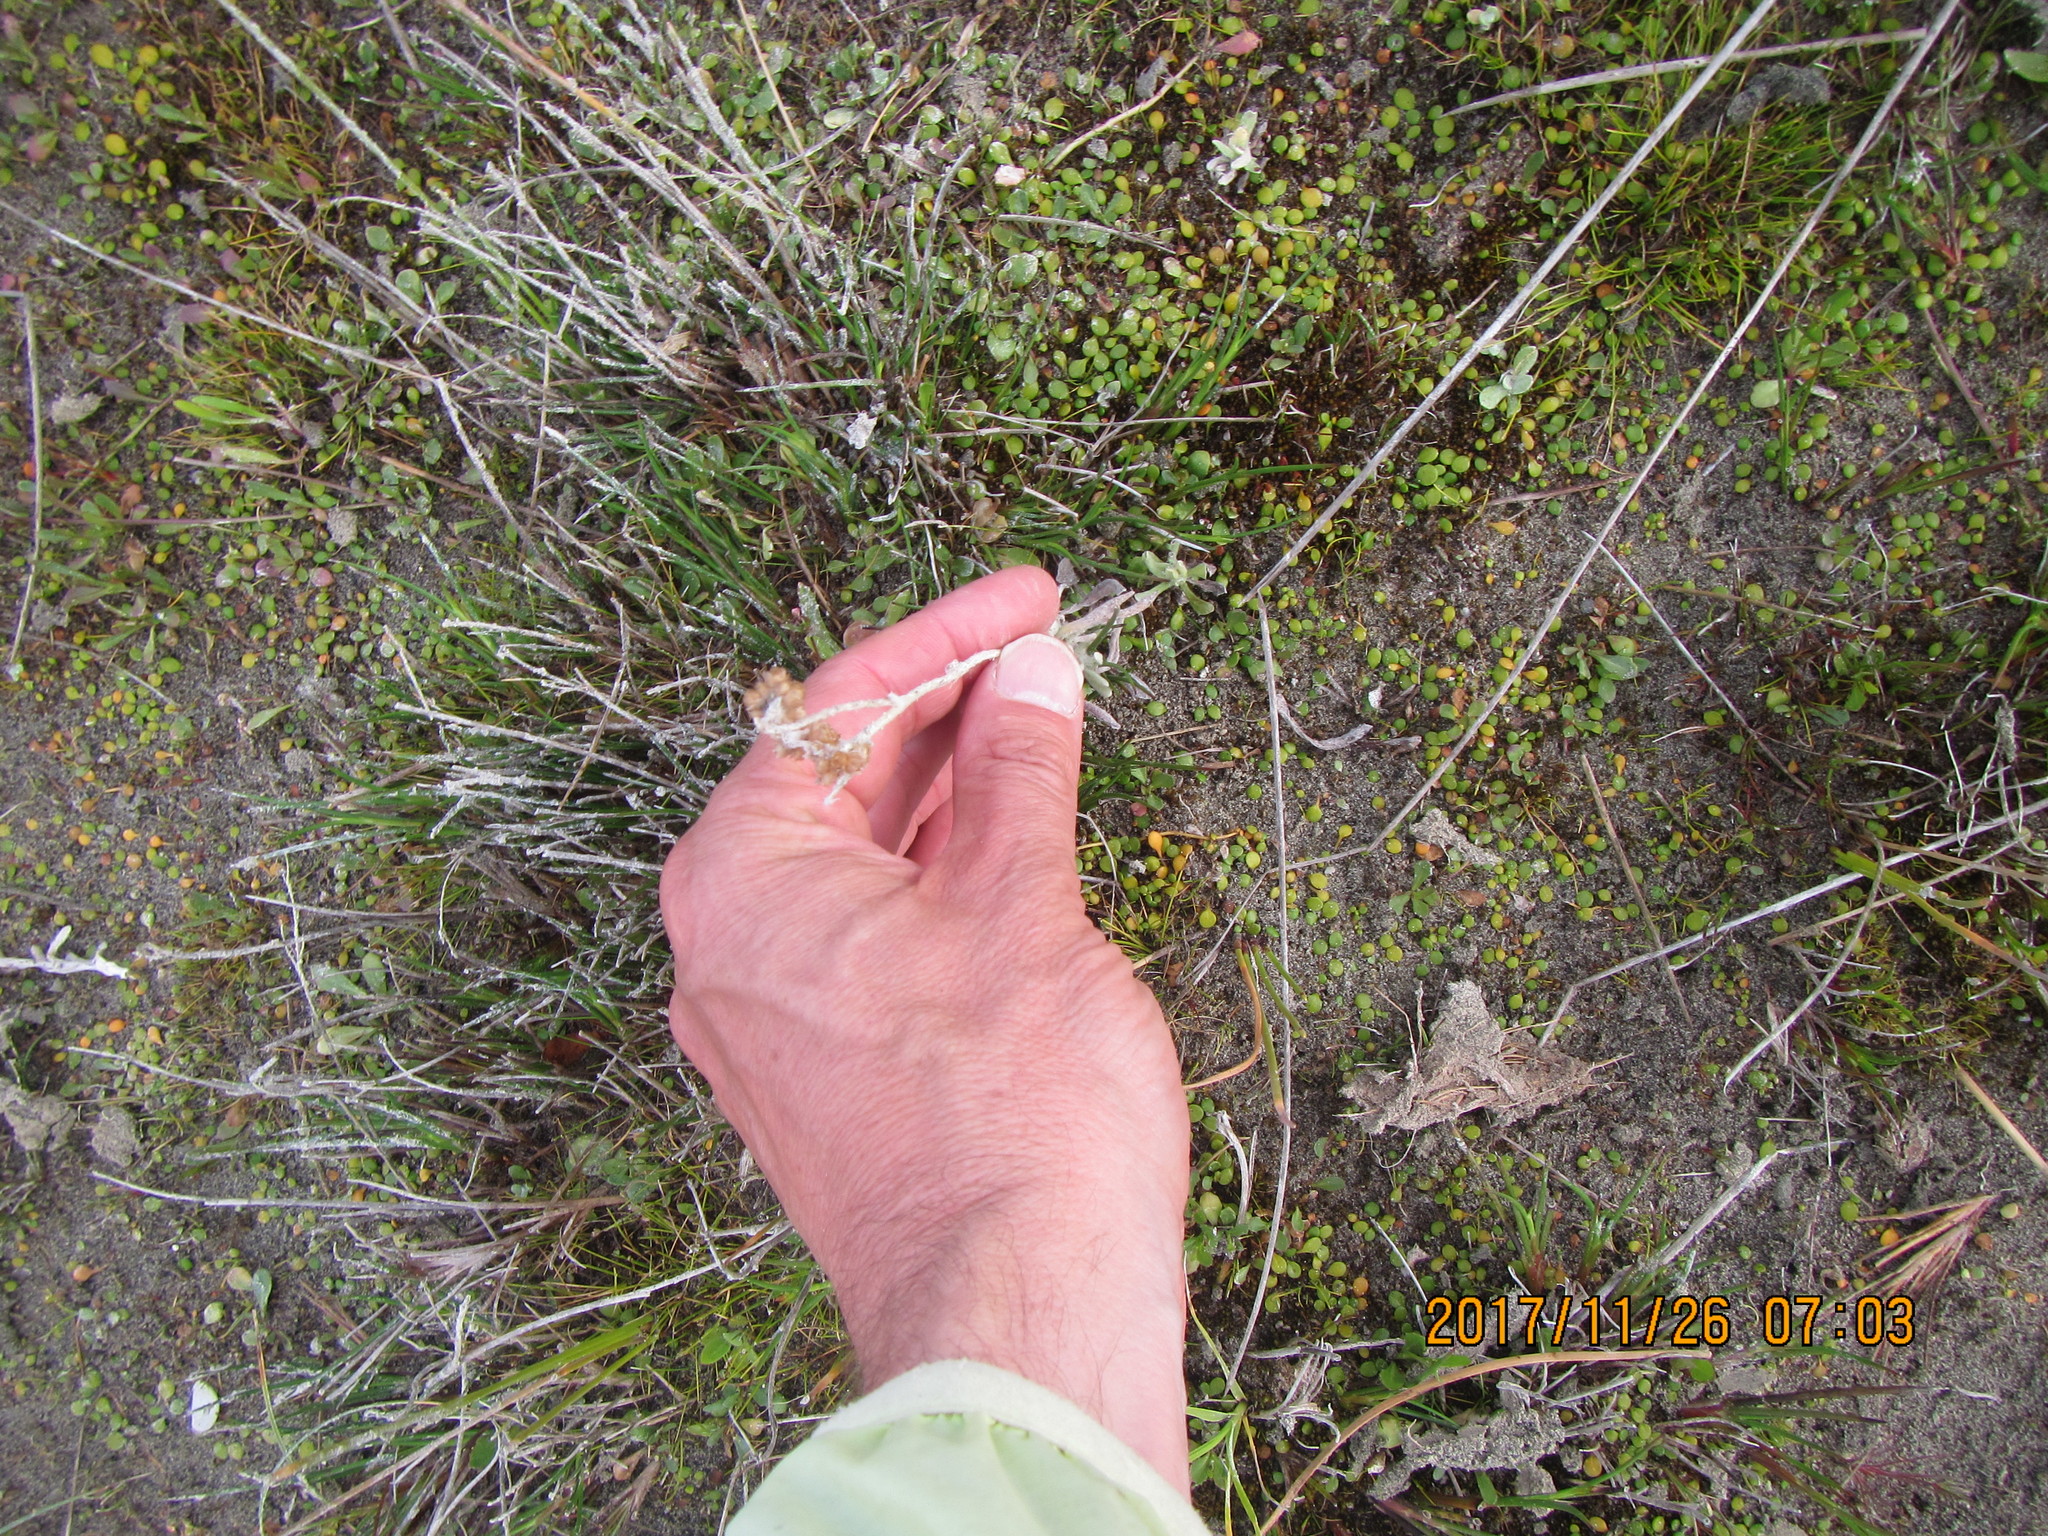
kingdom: Plantae
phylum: Tracheophyta
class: Magnoliopsida
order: Asterales
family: Asteraceae
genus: Helichrysum
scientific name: Helichrysum luteoalbum
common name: Daisy
